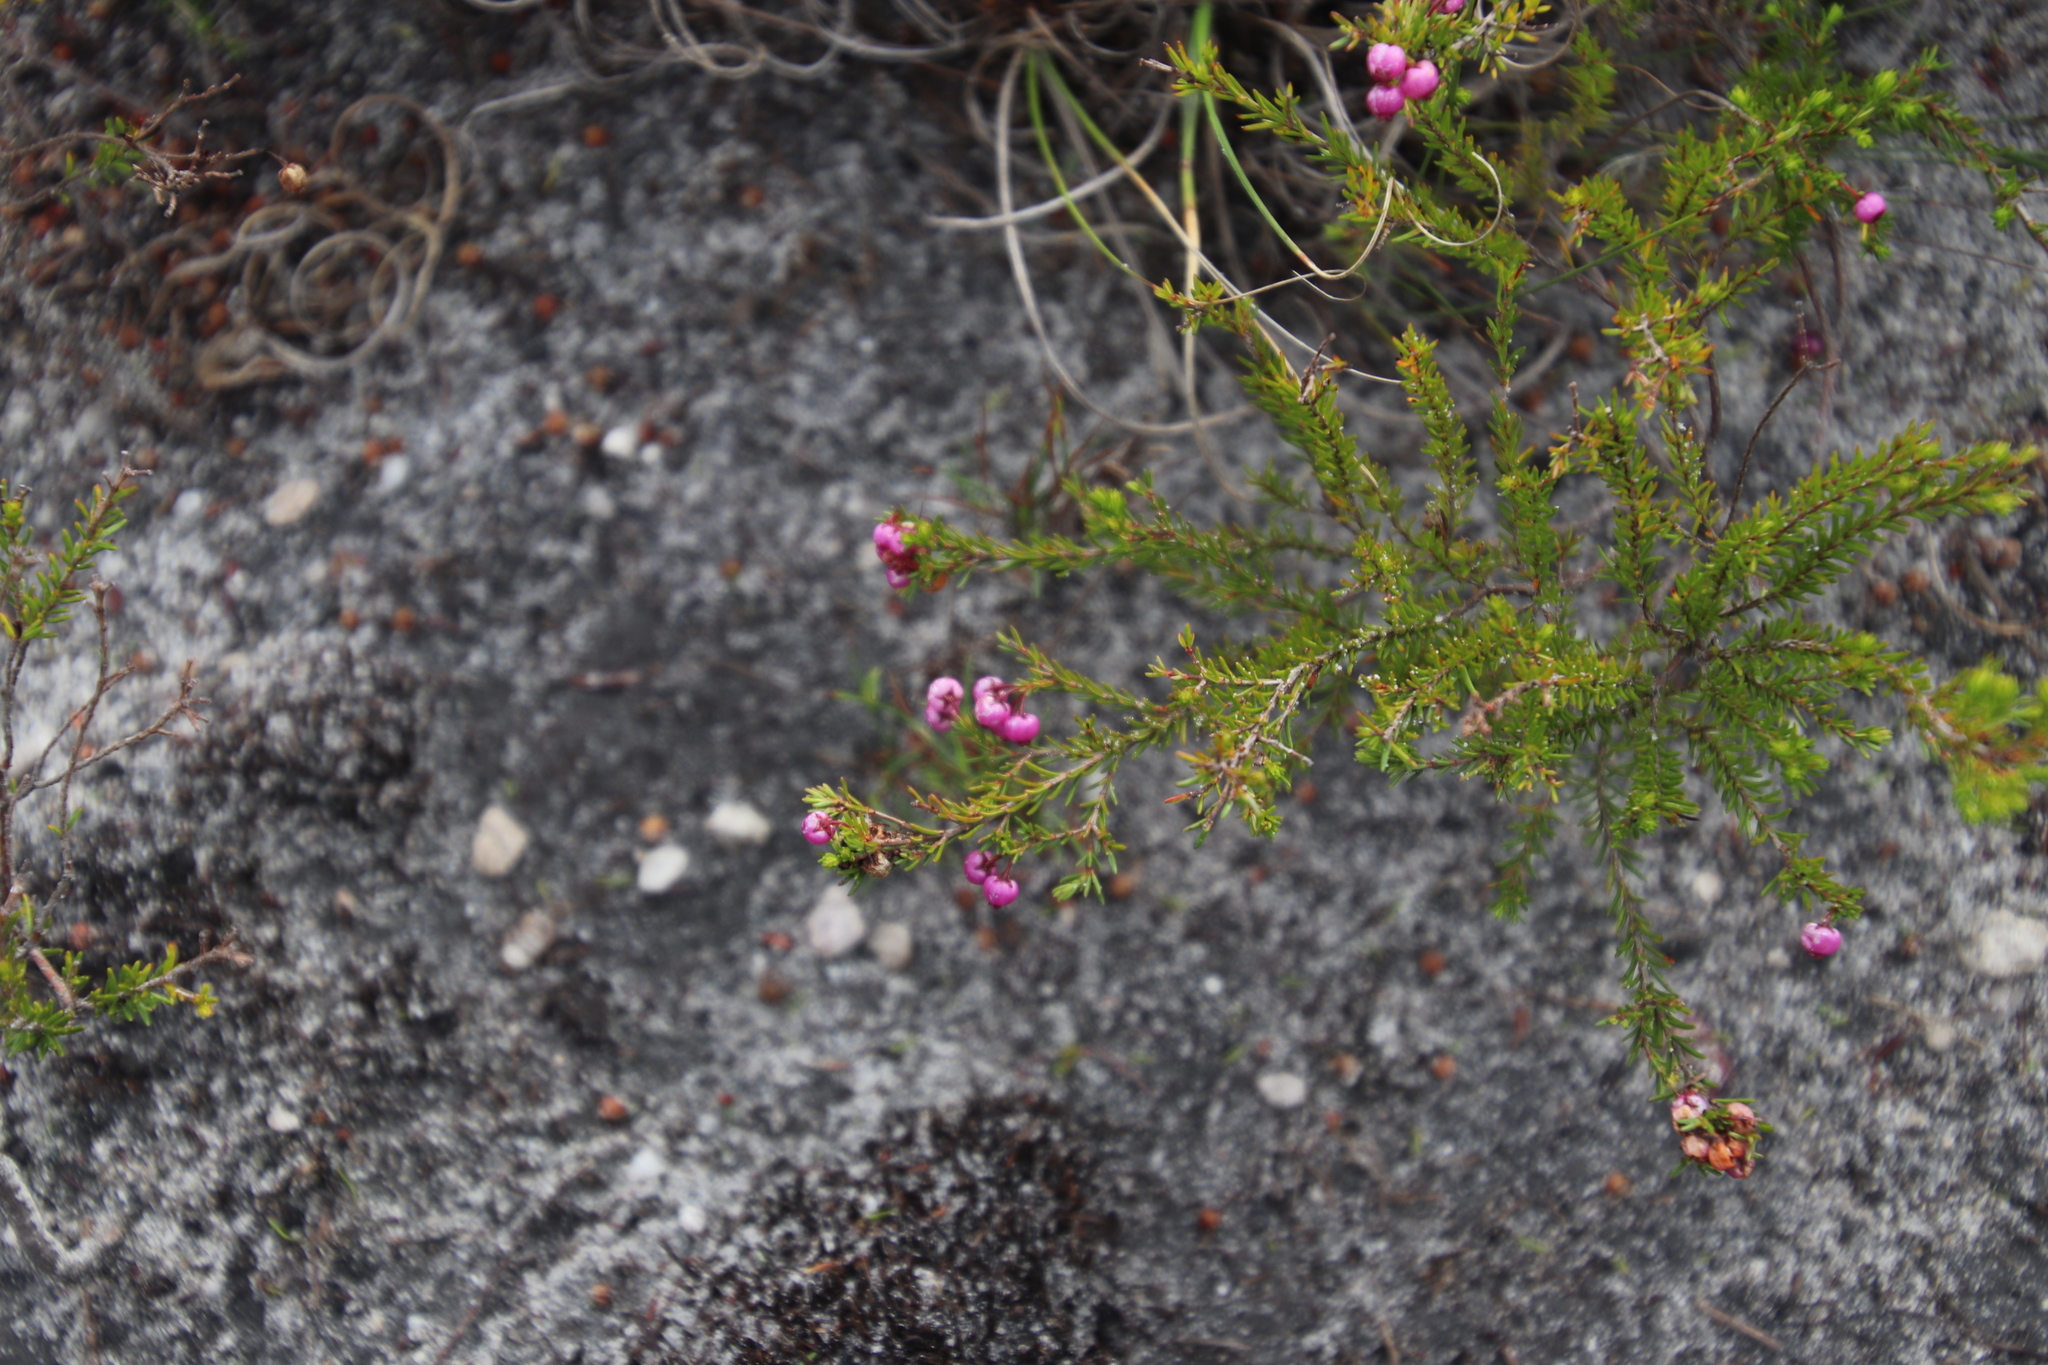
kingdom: Plantae
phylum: Tracheophyta
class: Magnoliopsida
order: Ericales
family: Ericaceae
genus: Erica
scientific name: Erica multumbellifera
